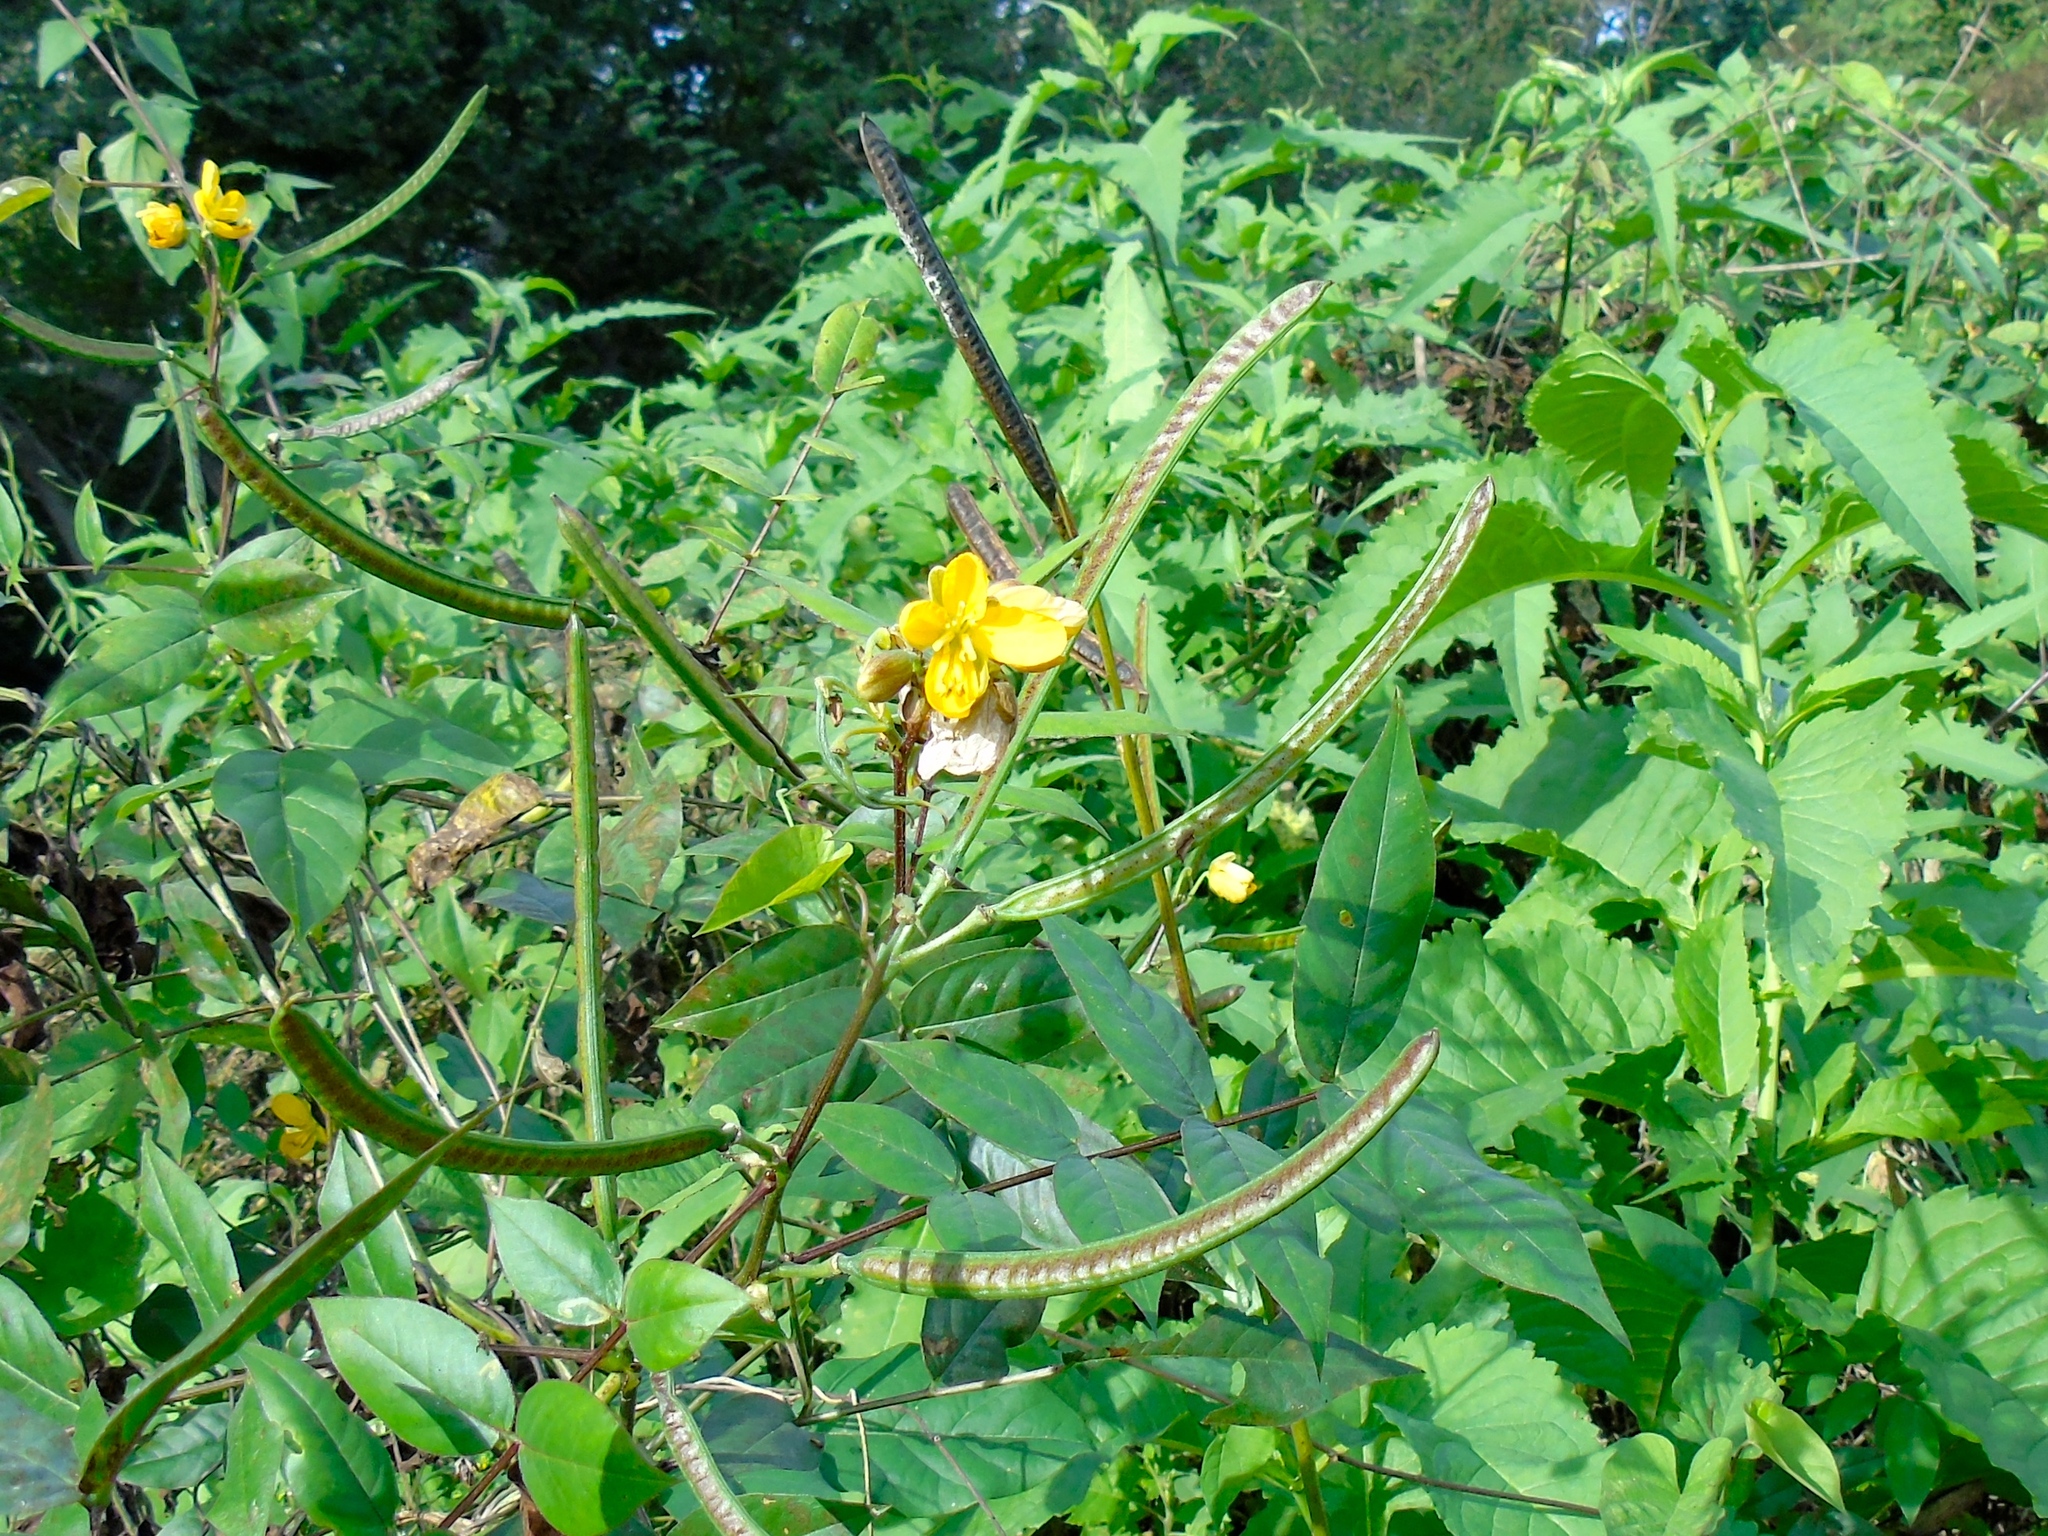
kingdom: Plantae
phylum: Tracheophyta
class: Magnoliopsida
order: Fabales
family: Fabaceae
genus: Senna
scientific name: Senna occidentalis
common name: Septicweed
